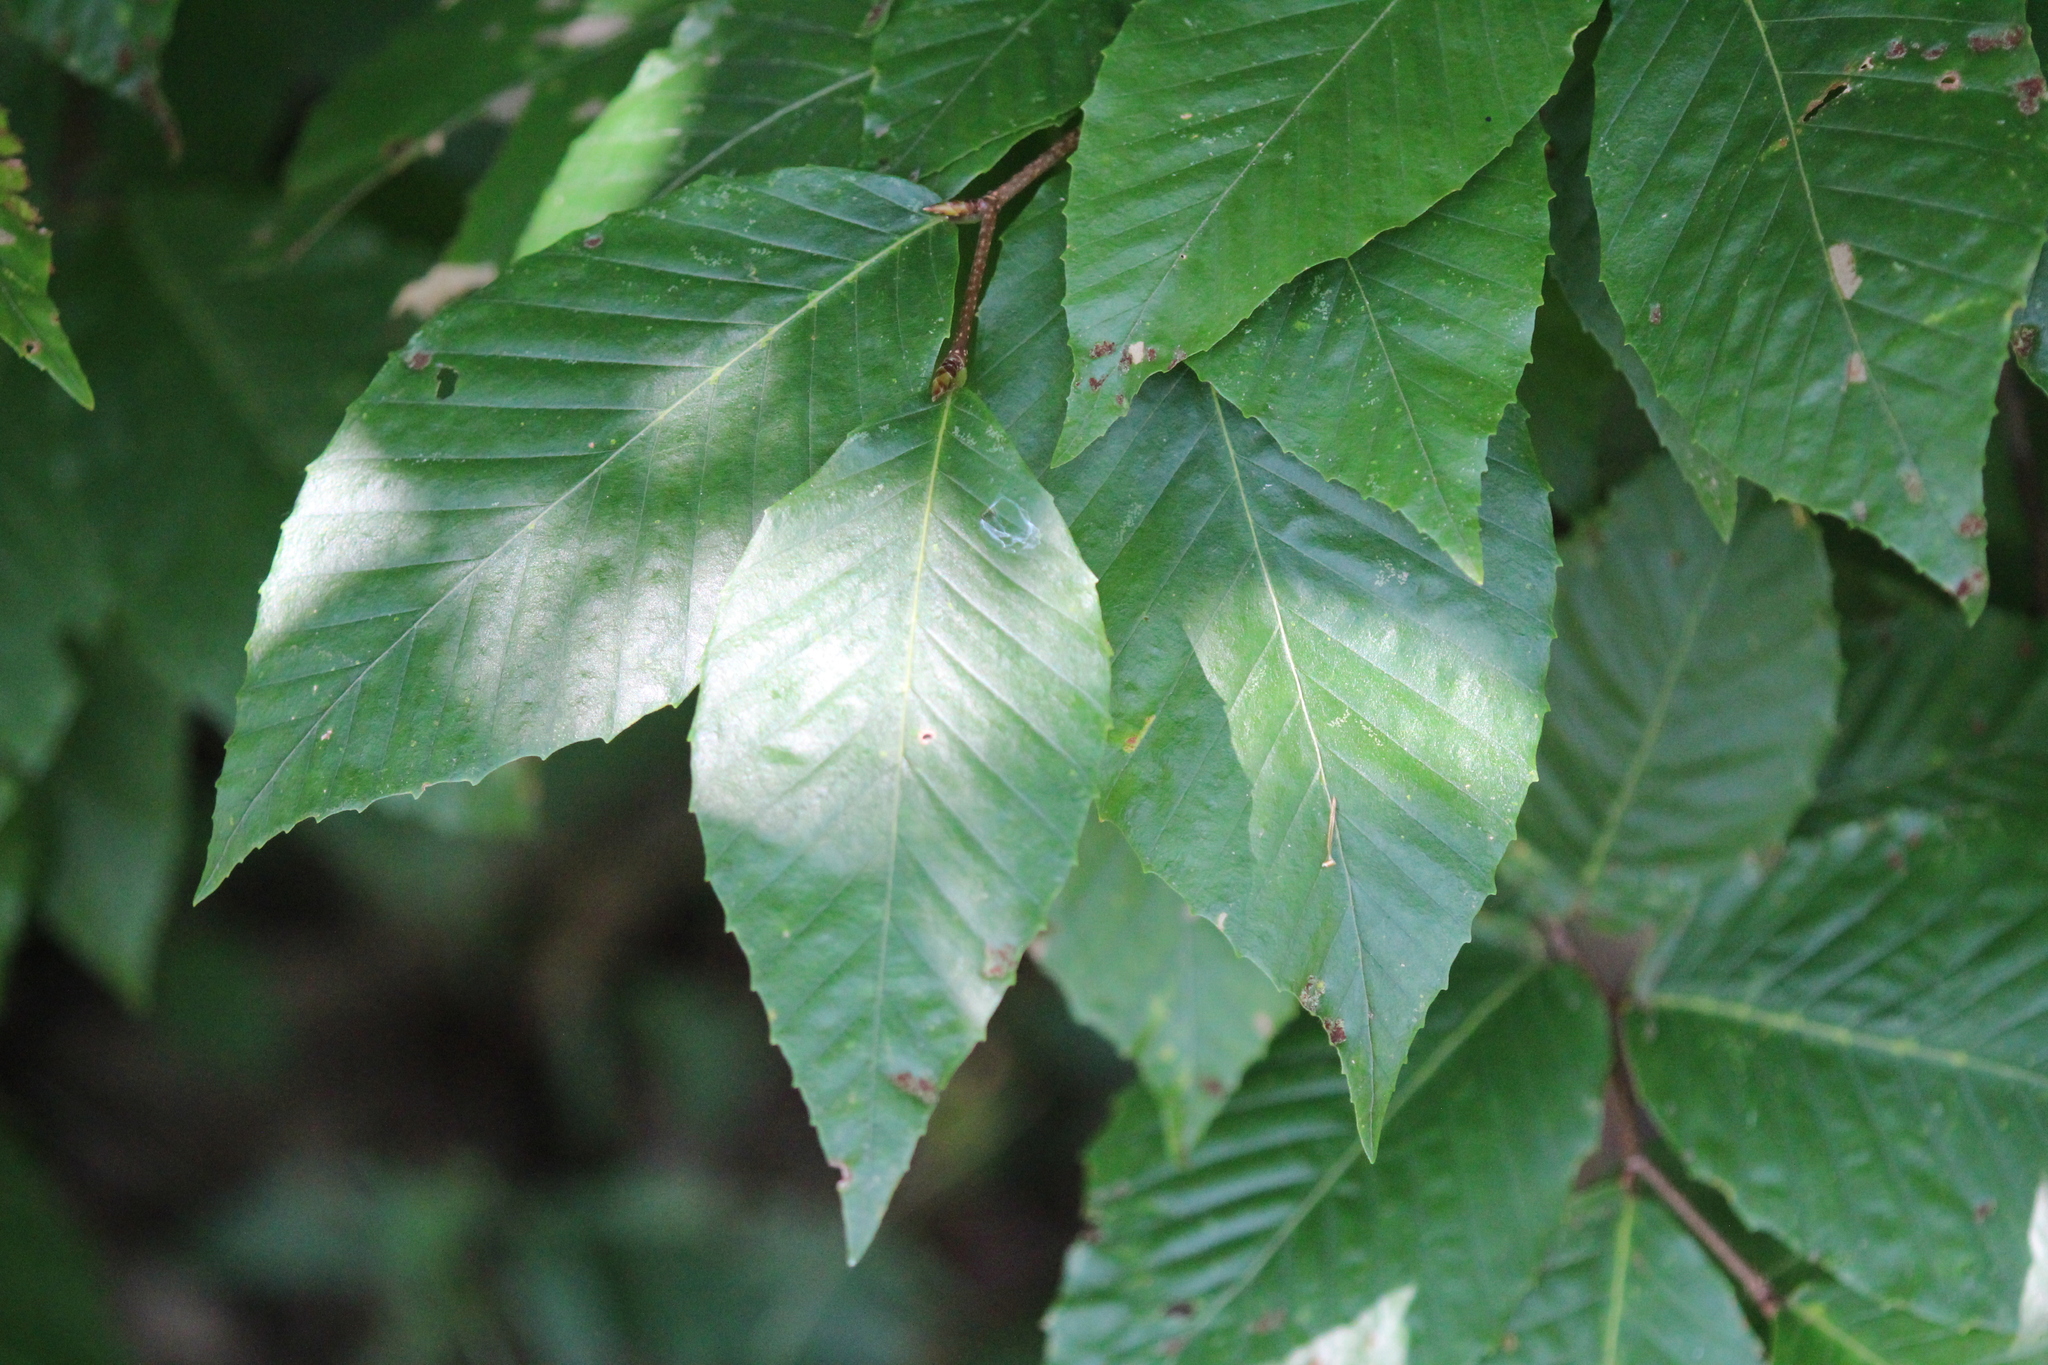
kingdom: Plantae
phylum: Tracheophyta
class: Magnoliopsida
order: Fagales
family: Fagaceae
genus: Fagus
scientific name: Fagus grandifolia
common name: American beech
